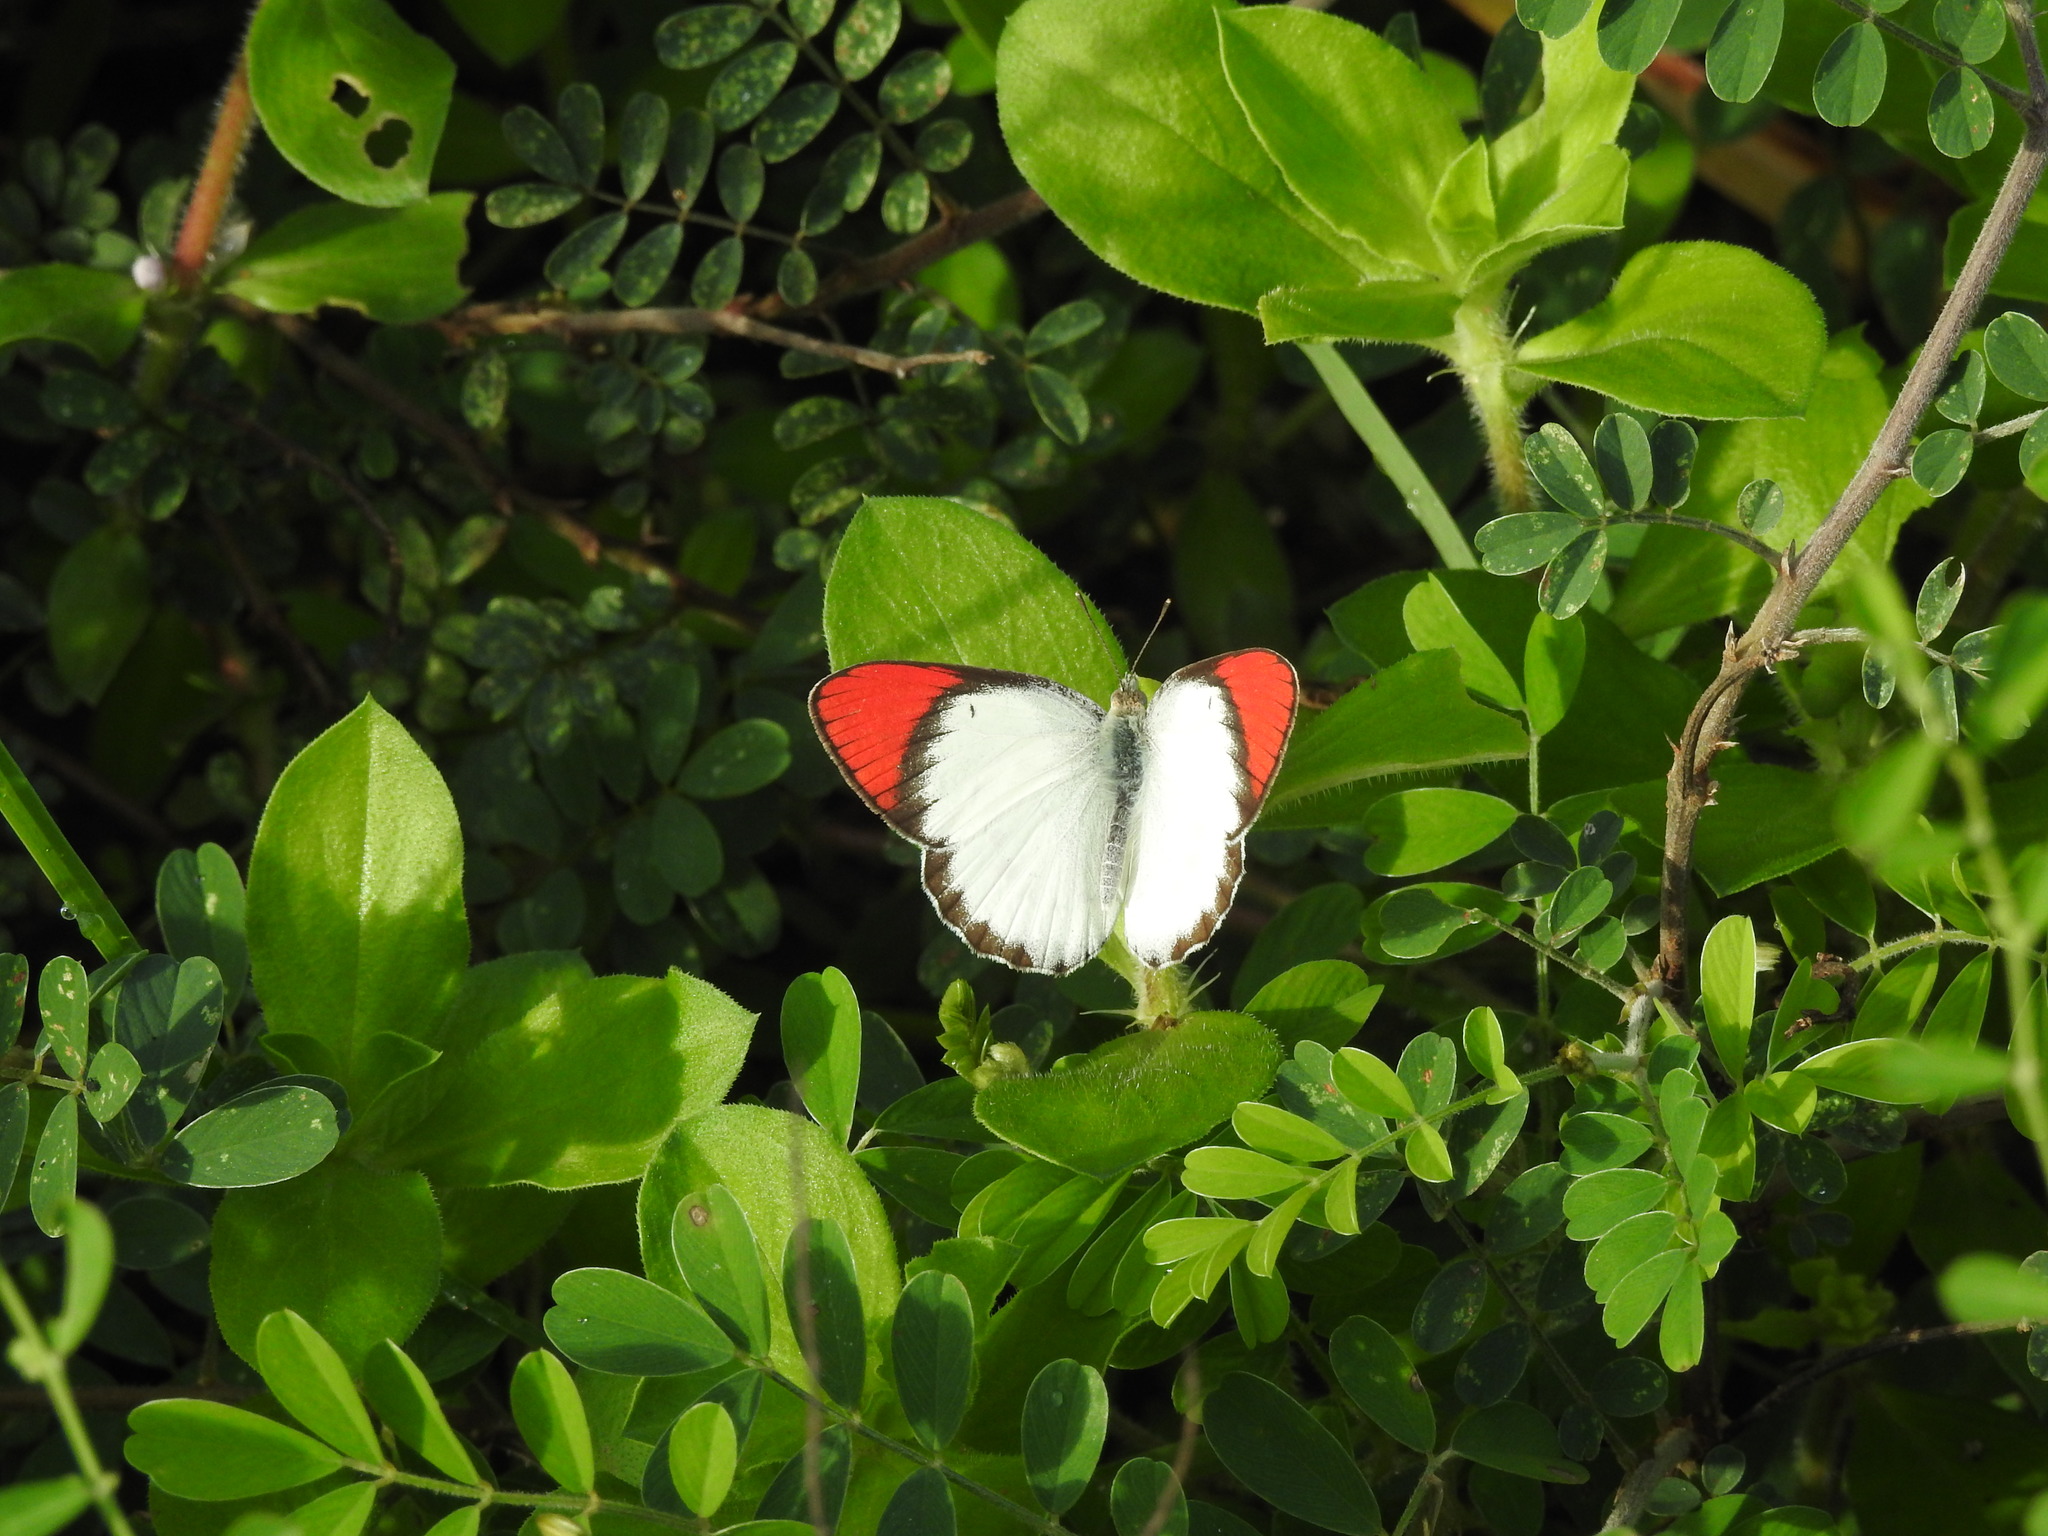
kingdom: Animalia
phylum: Arthropoda
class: Insecta
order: Lepidoptera
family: Pieridae
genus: Colotis
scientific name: Colotis danae
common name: Crimson tip
